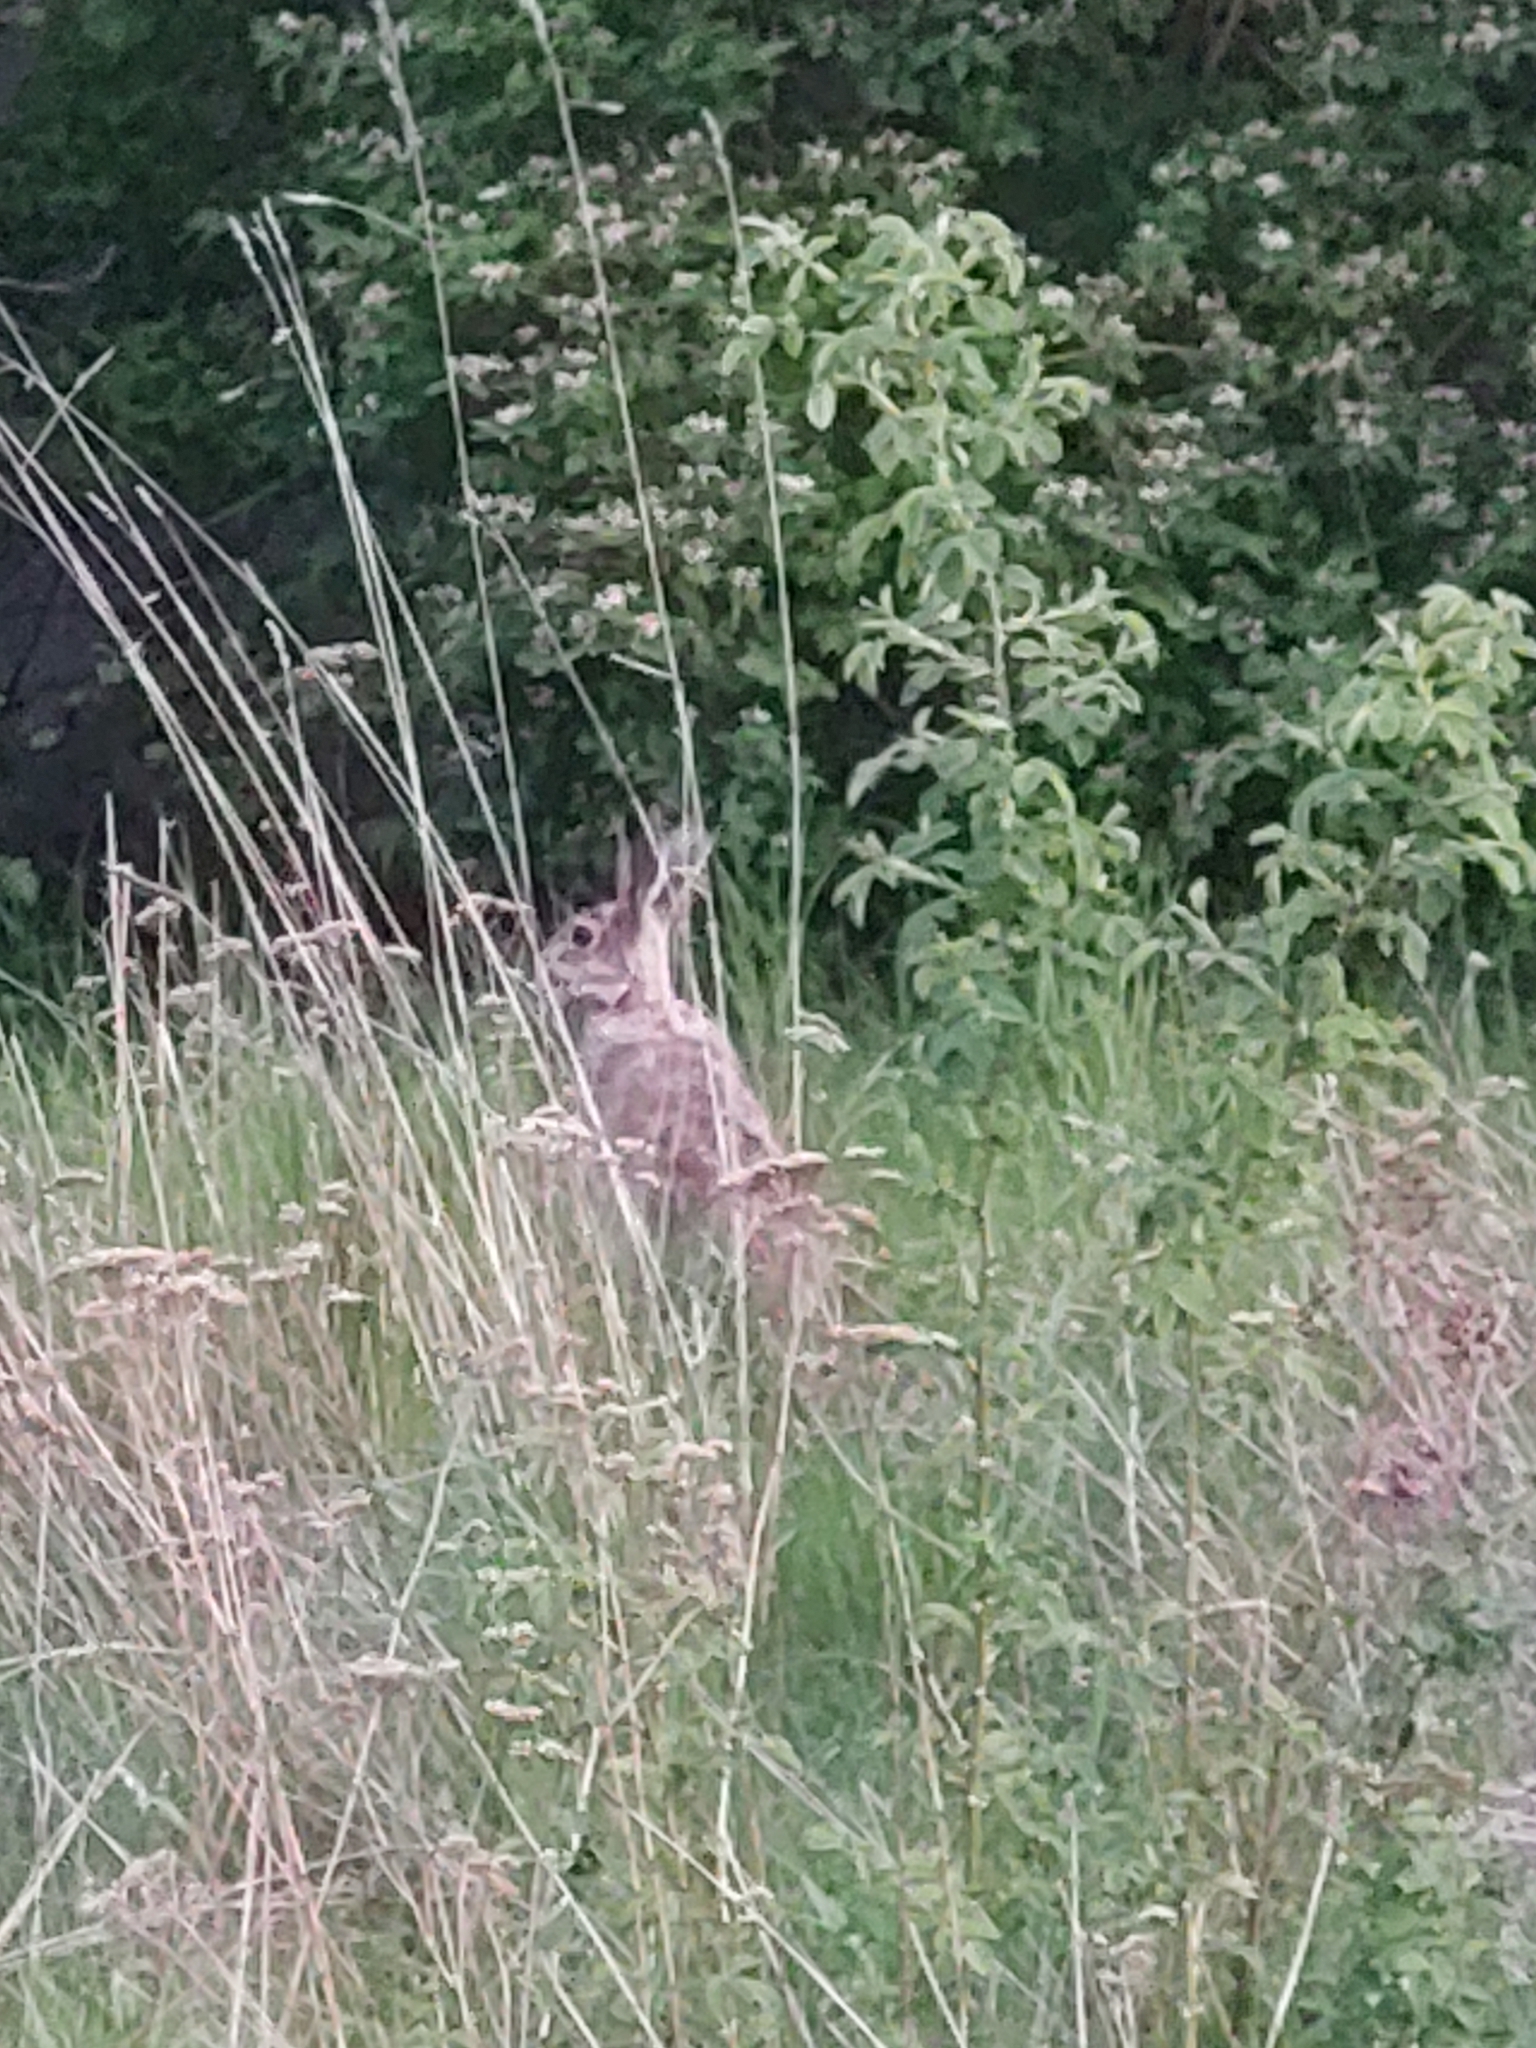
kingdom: Animalia
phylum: Chordata
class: Mammalia
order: Lagomorpha
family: Leporidae
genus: Lepus
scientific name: Lepus europaeus
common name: European hare
